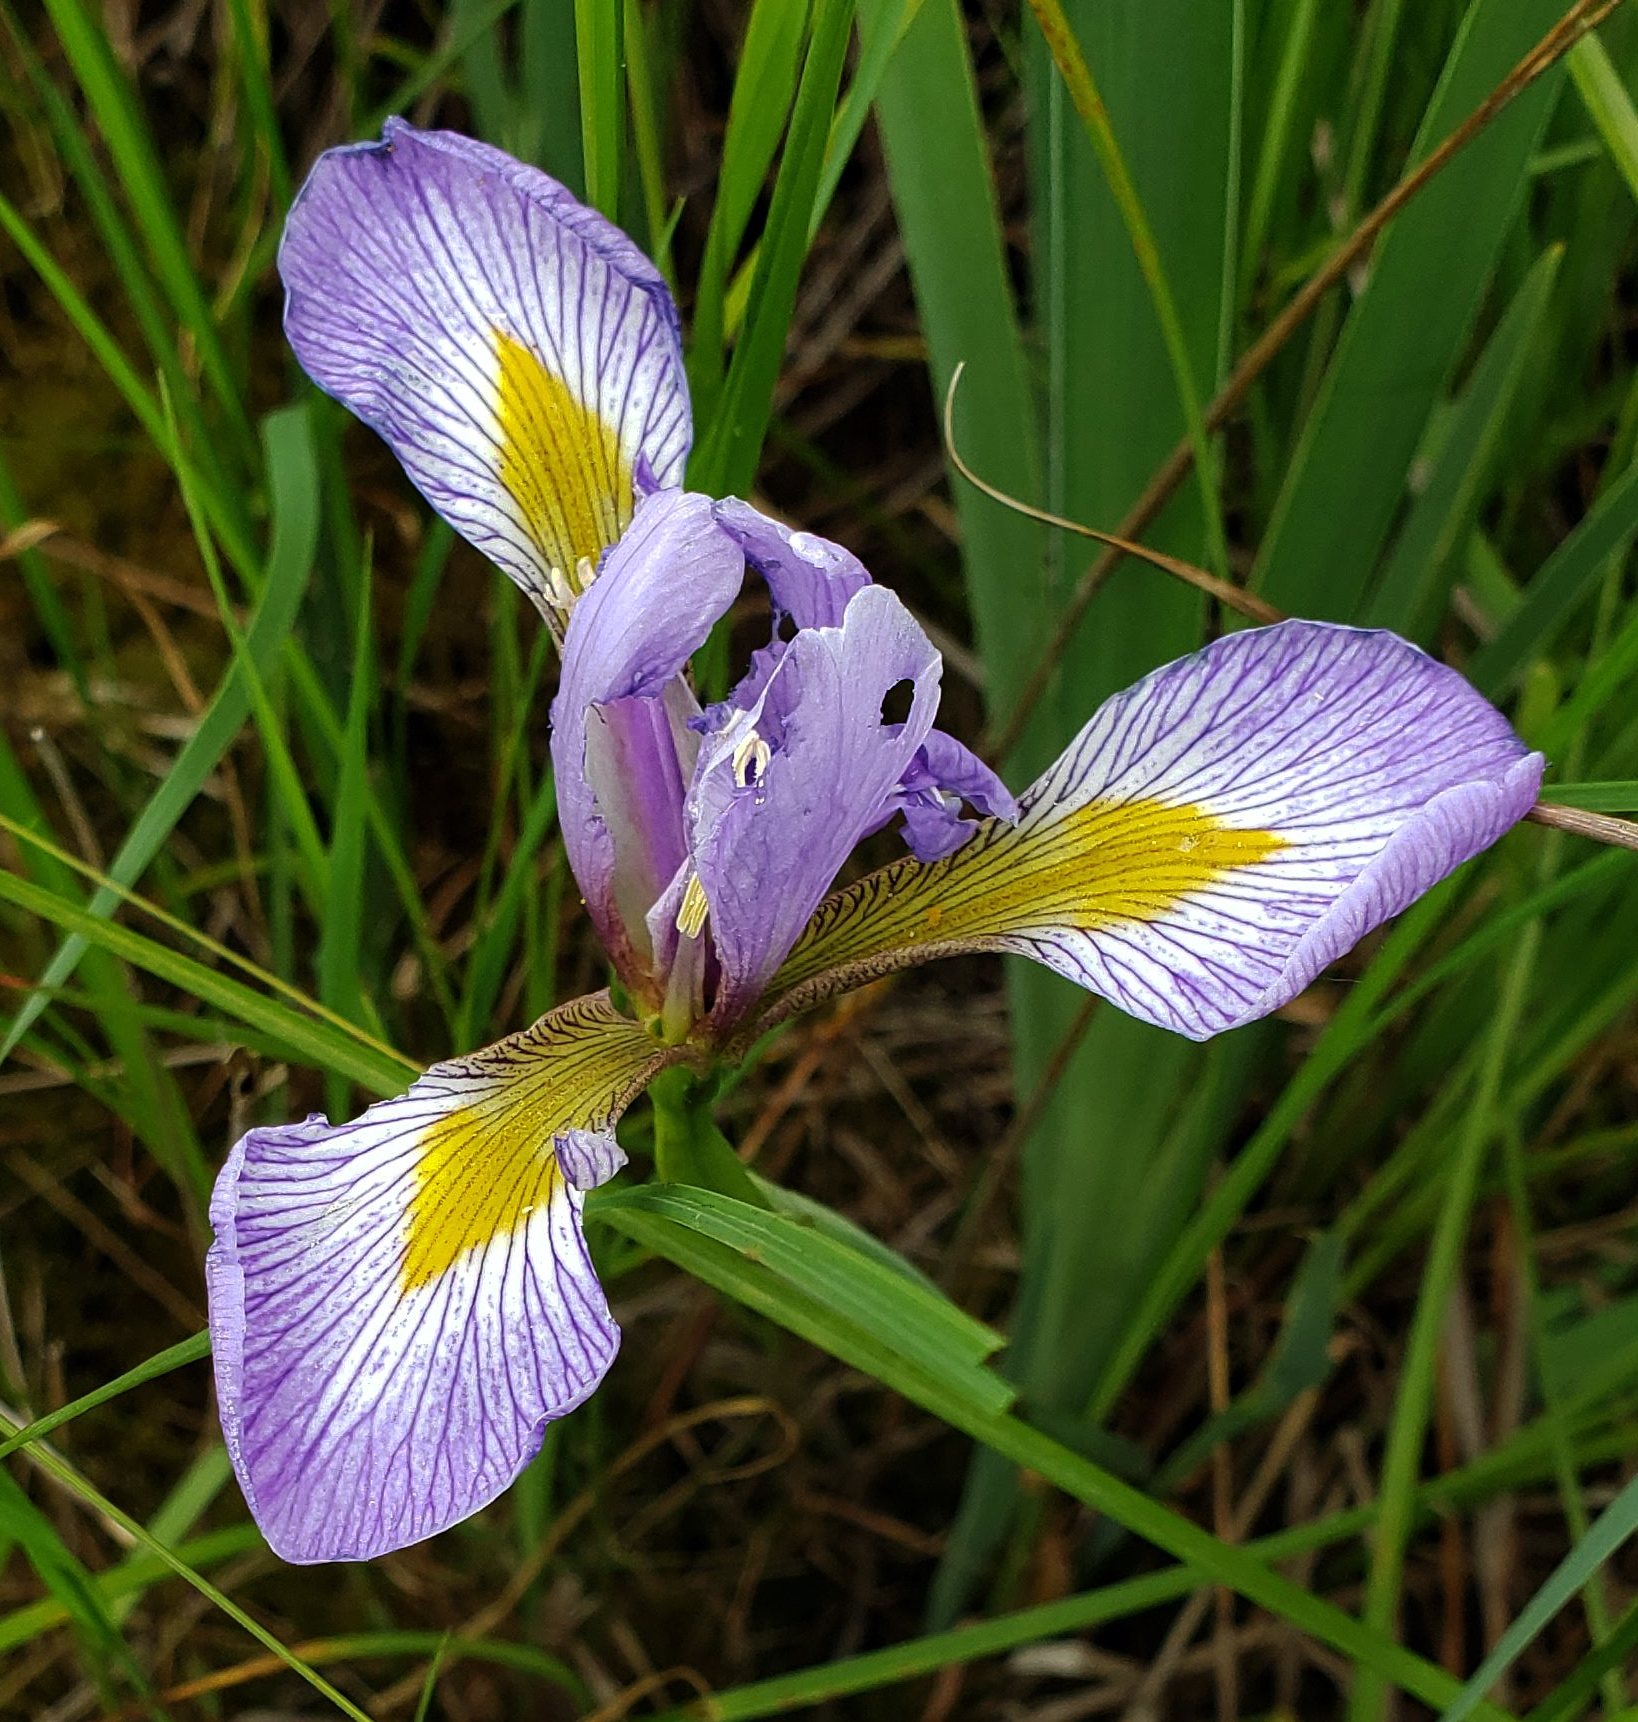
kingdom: Plantae
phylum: Tracheophyta
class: Liliopsida
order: Asparagales
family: Iridaceae
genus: Iris
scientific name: Iris virginica
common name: Southern blue flag
